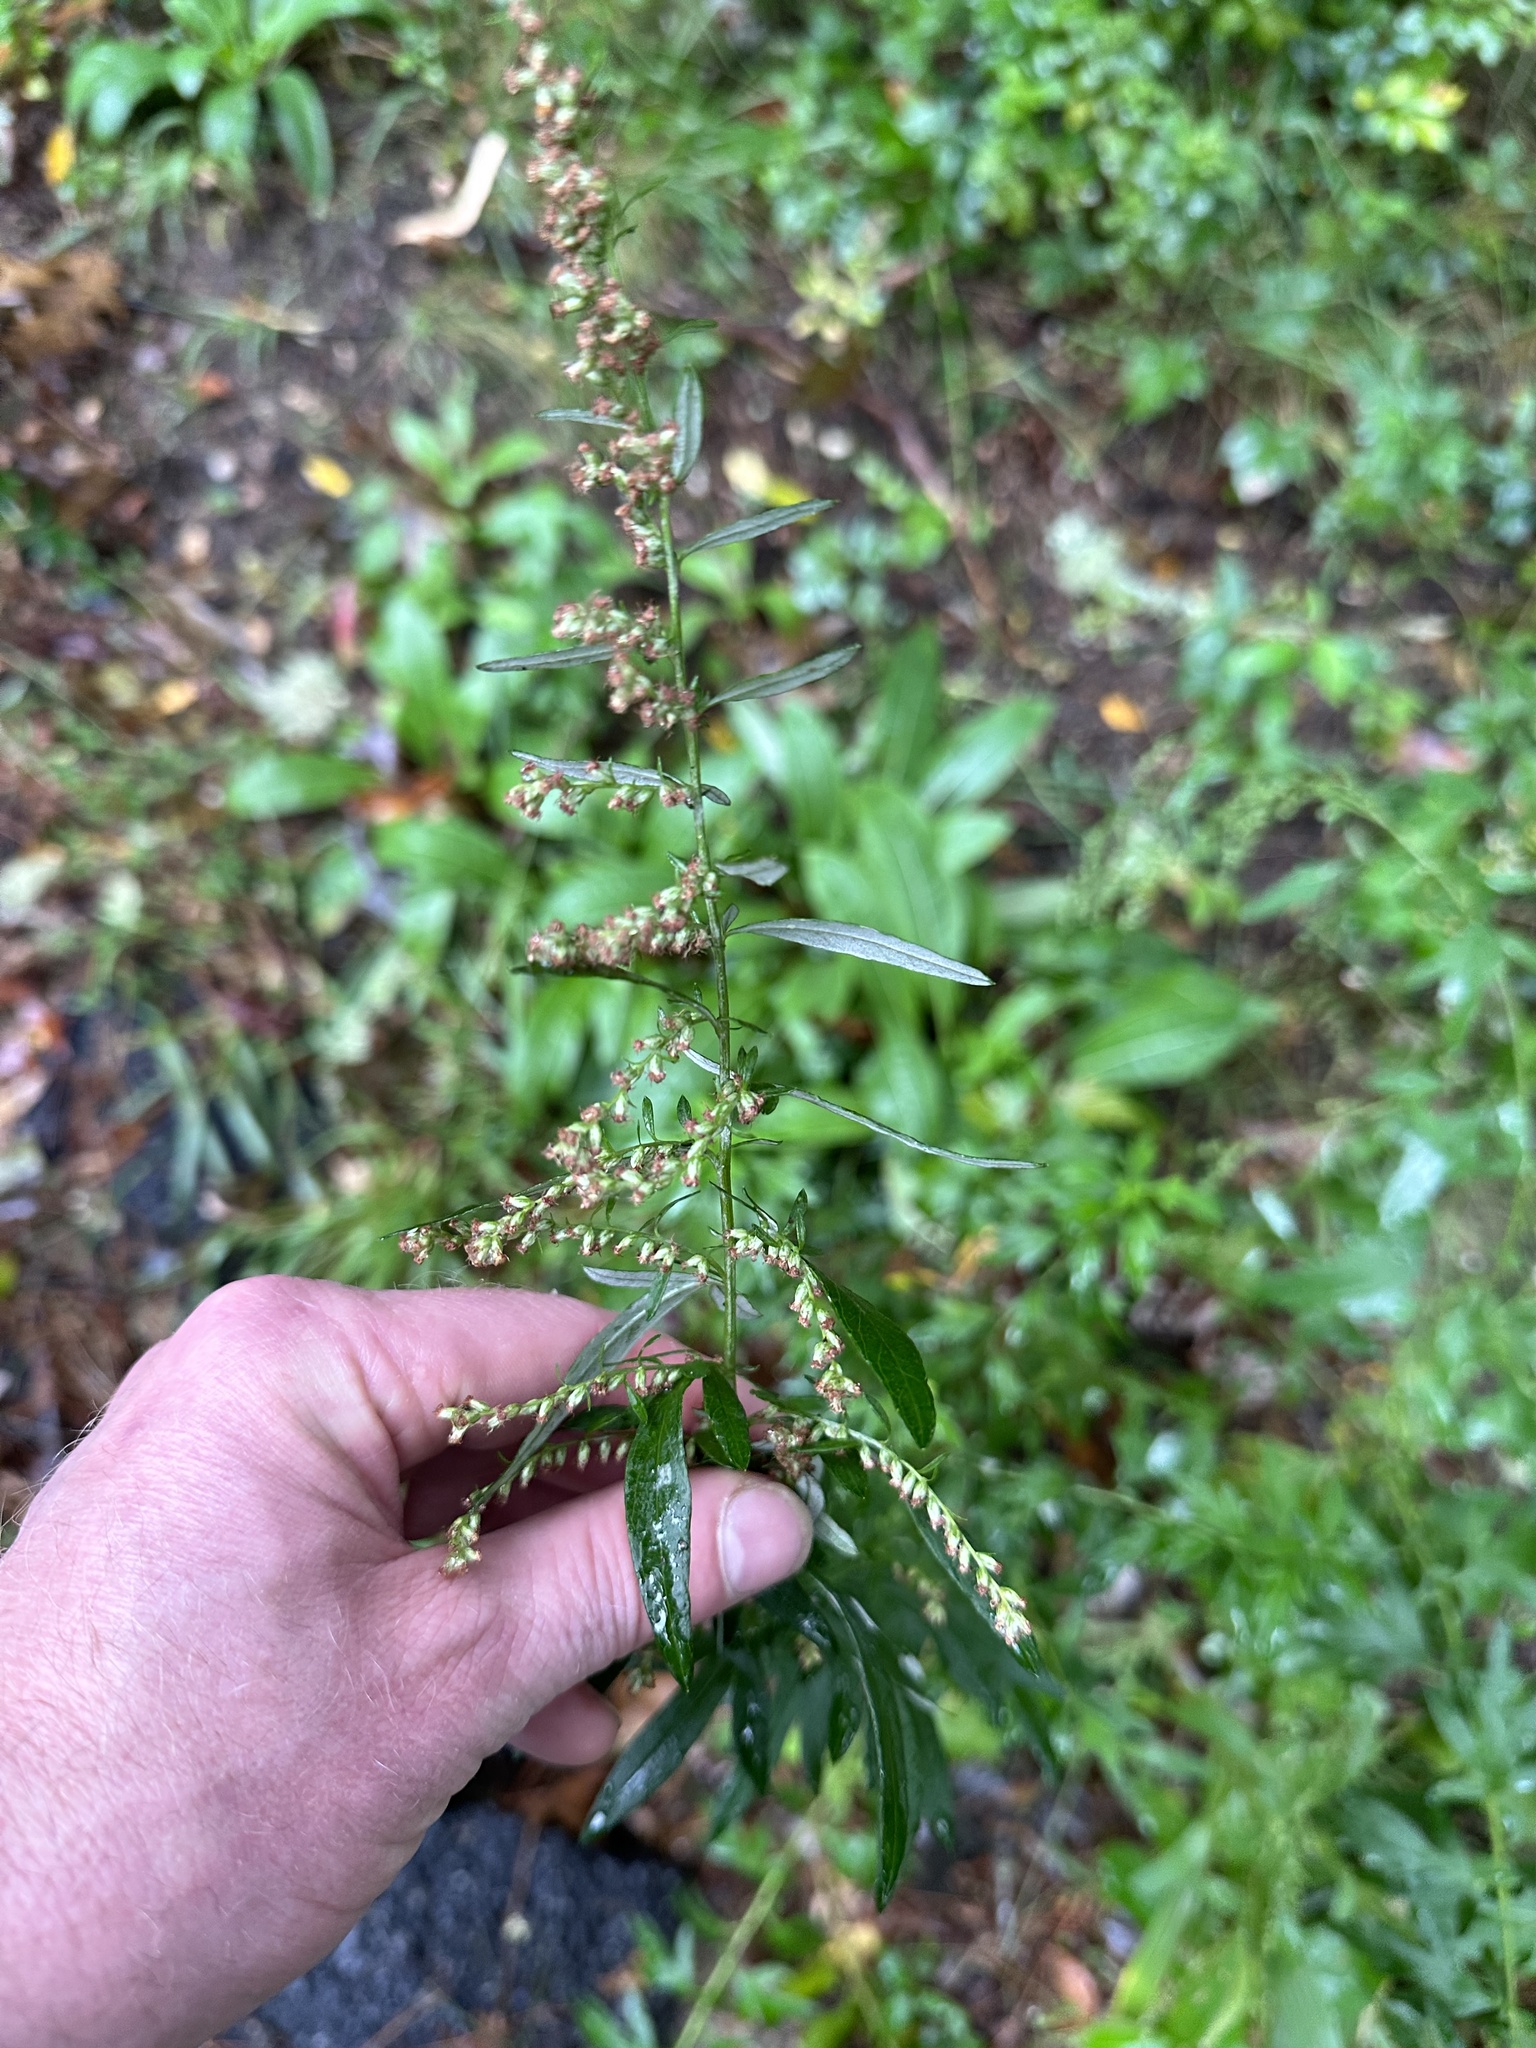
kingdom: Plantae
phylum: Tracheophyta
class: Magnoliopsida
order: Asterales
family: Asteraceae
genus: Artemisia
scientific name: Artemisia vulgaris
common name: Mugwort
